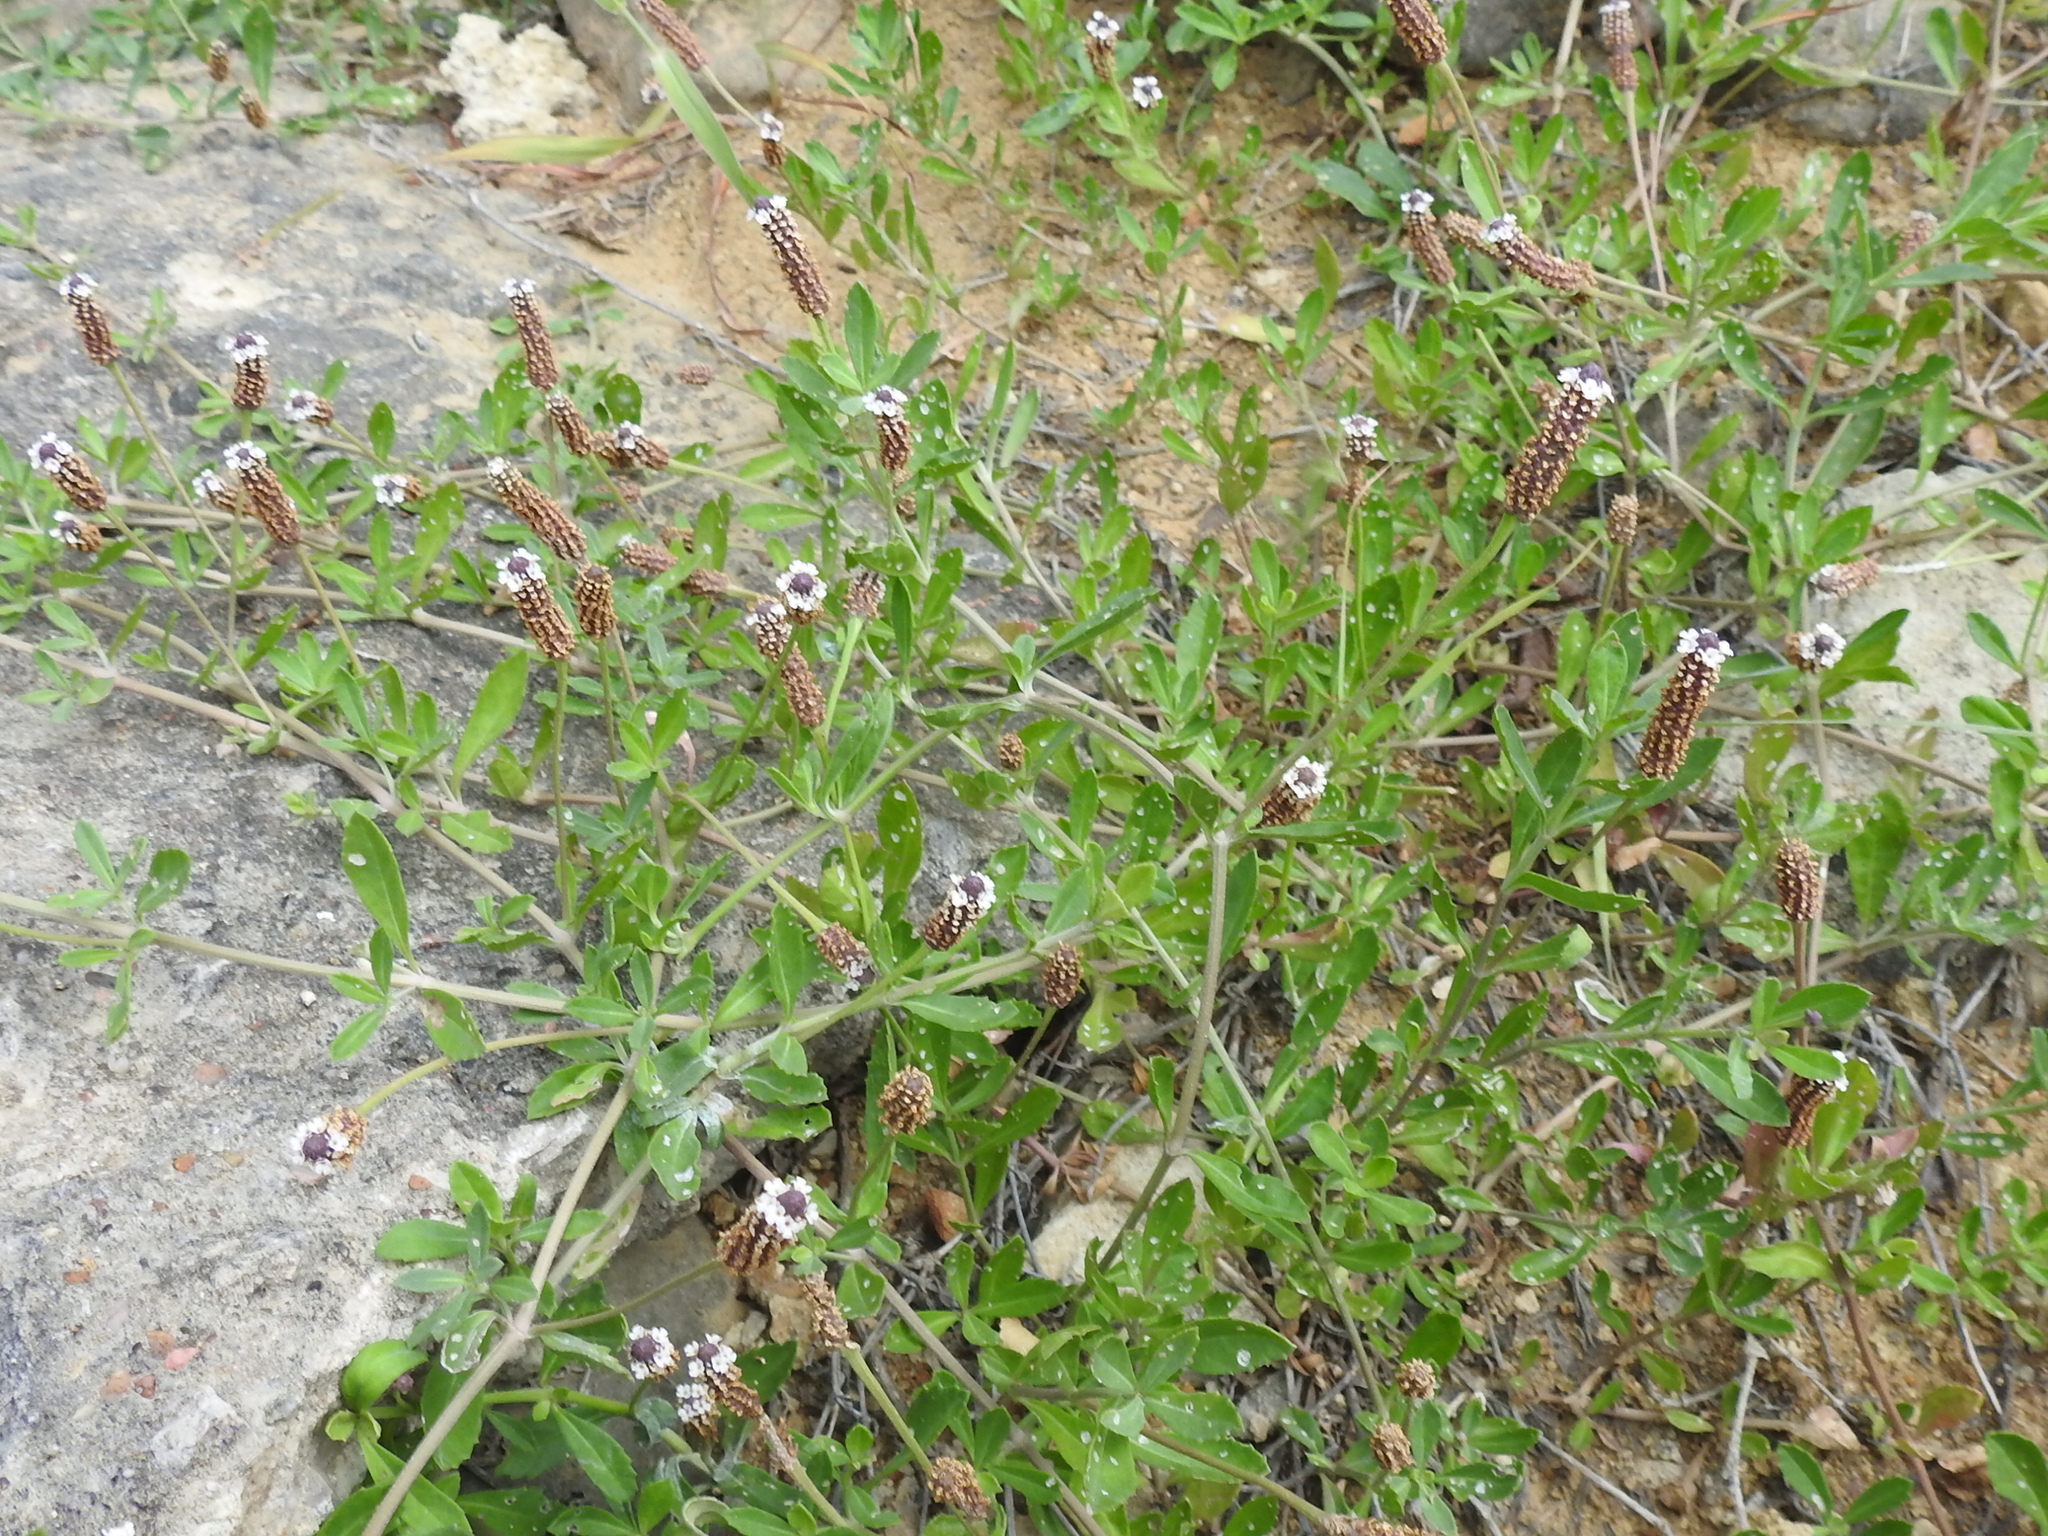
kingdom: Plantae
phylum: Tracheophyta
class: Magnoliopsida
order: Lamiales
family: Verbenaceae
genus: Phyla
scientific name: Phyla nodiflora
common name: Frogfruit
